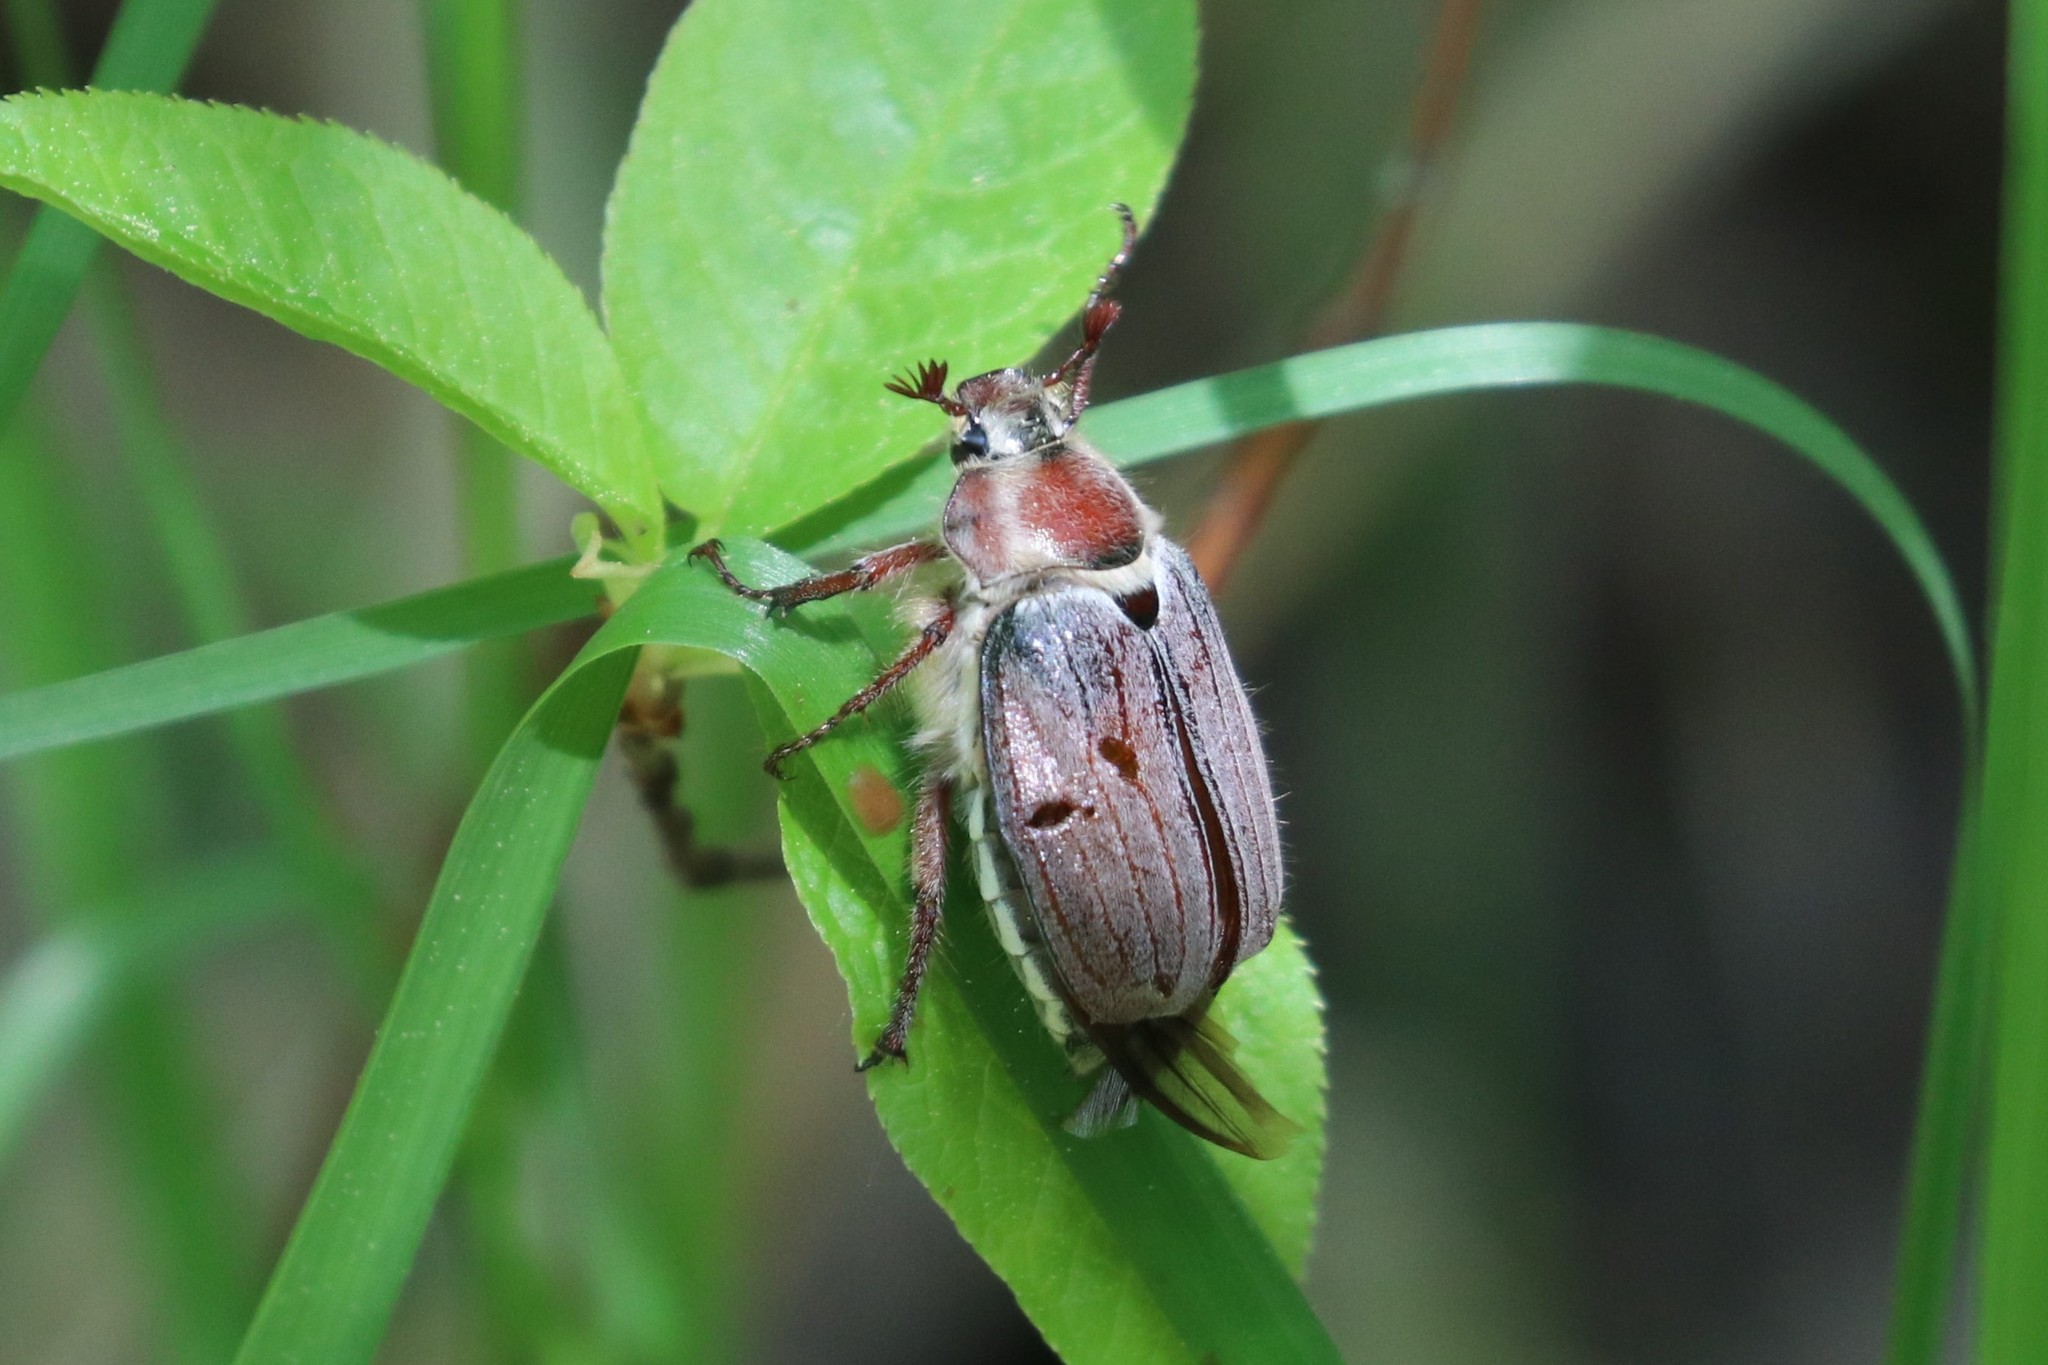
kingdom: Animalia
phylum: Arthropoda
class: Insecta
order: Coleoptera
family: Scarabaeidae
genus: Melolontha
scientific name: Melolontha hippocastani
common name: Chestnut cockchafer
